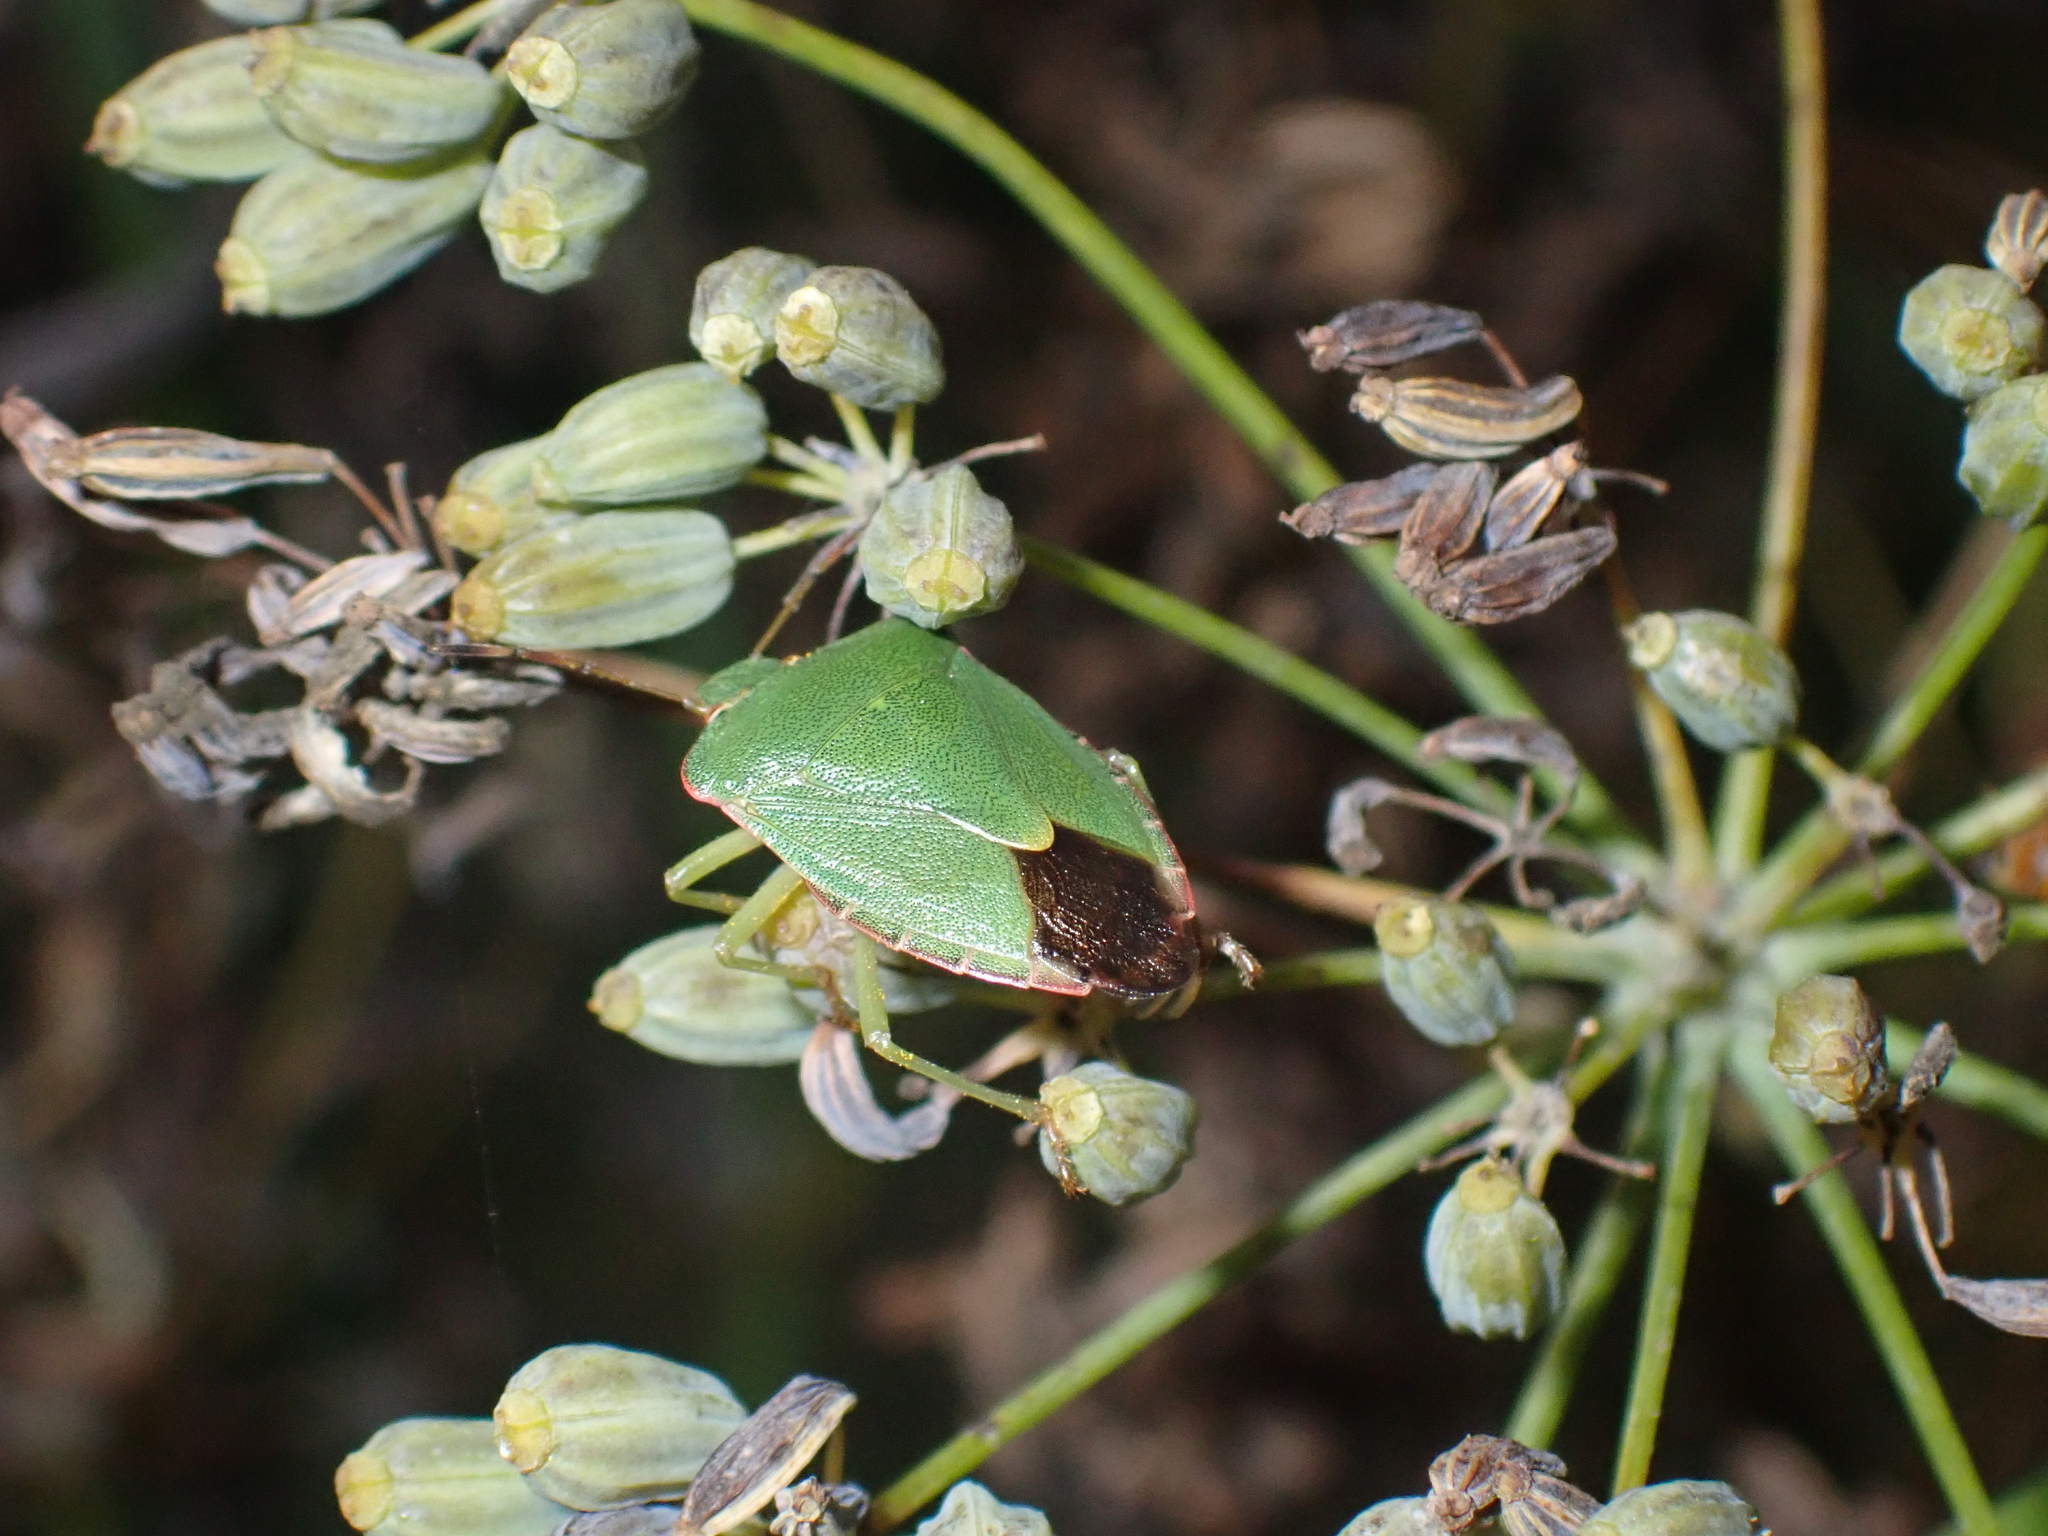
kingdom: Animalia
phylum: Arthropoda
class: Insecta
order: Hemiptera
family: Pentatomidae
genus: Palomena
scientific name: Palomena prasina
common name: Green shieldbug
